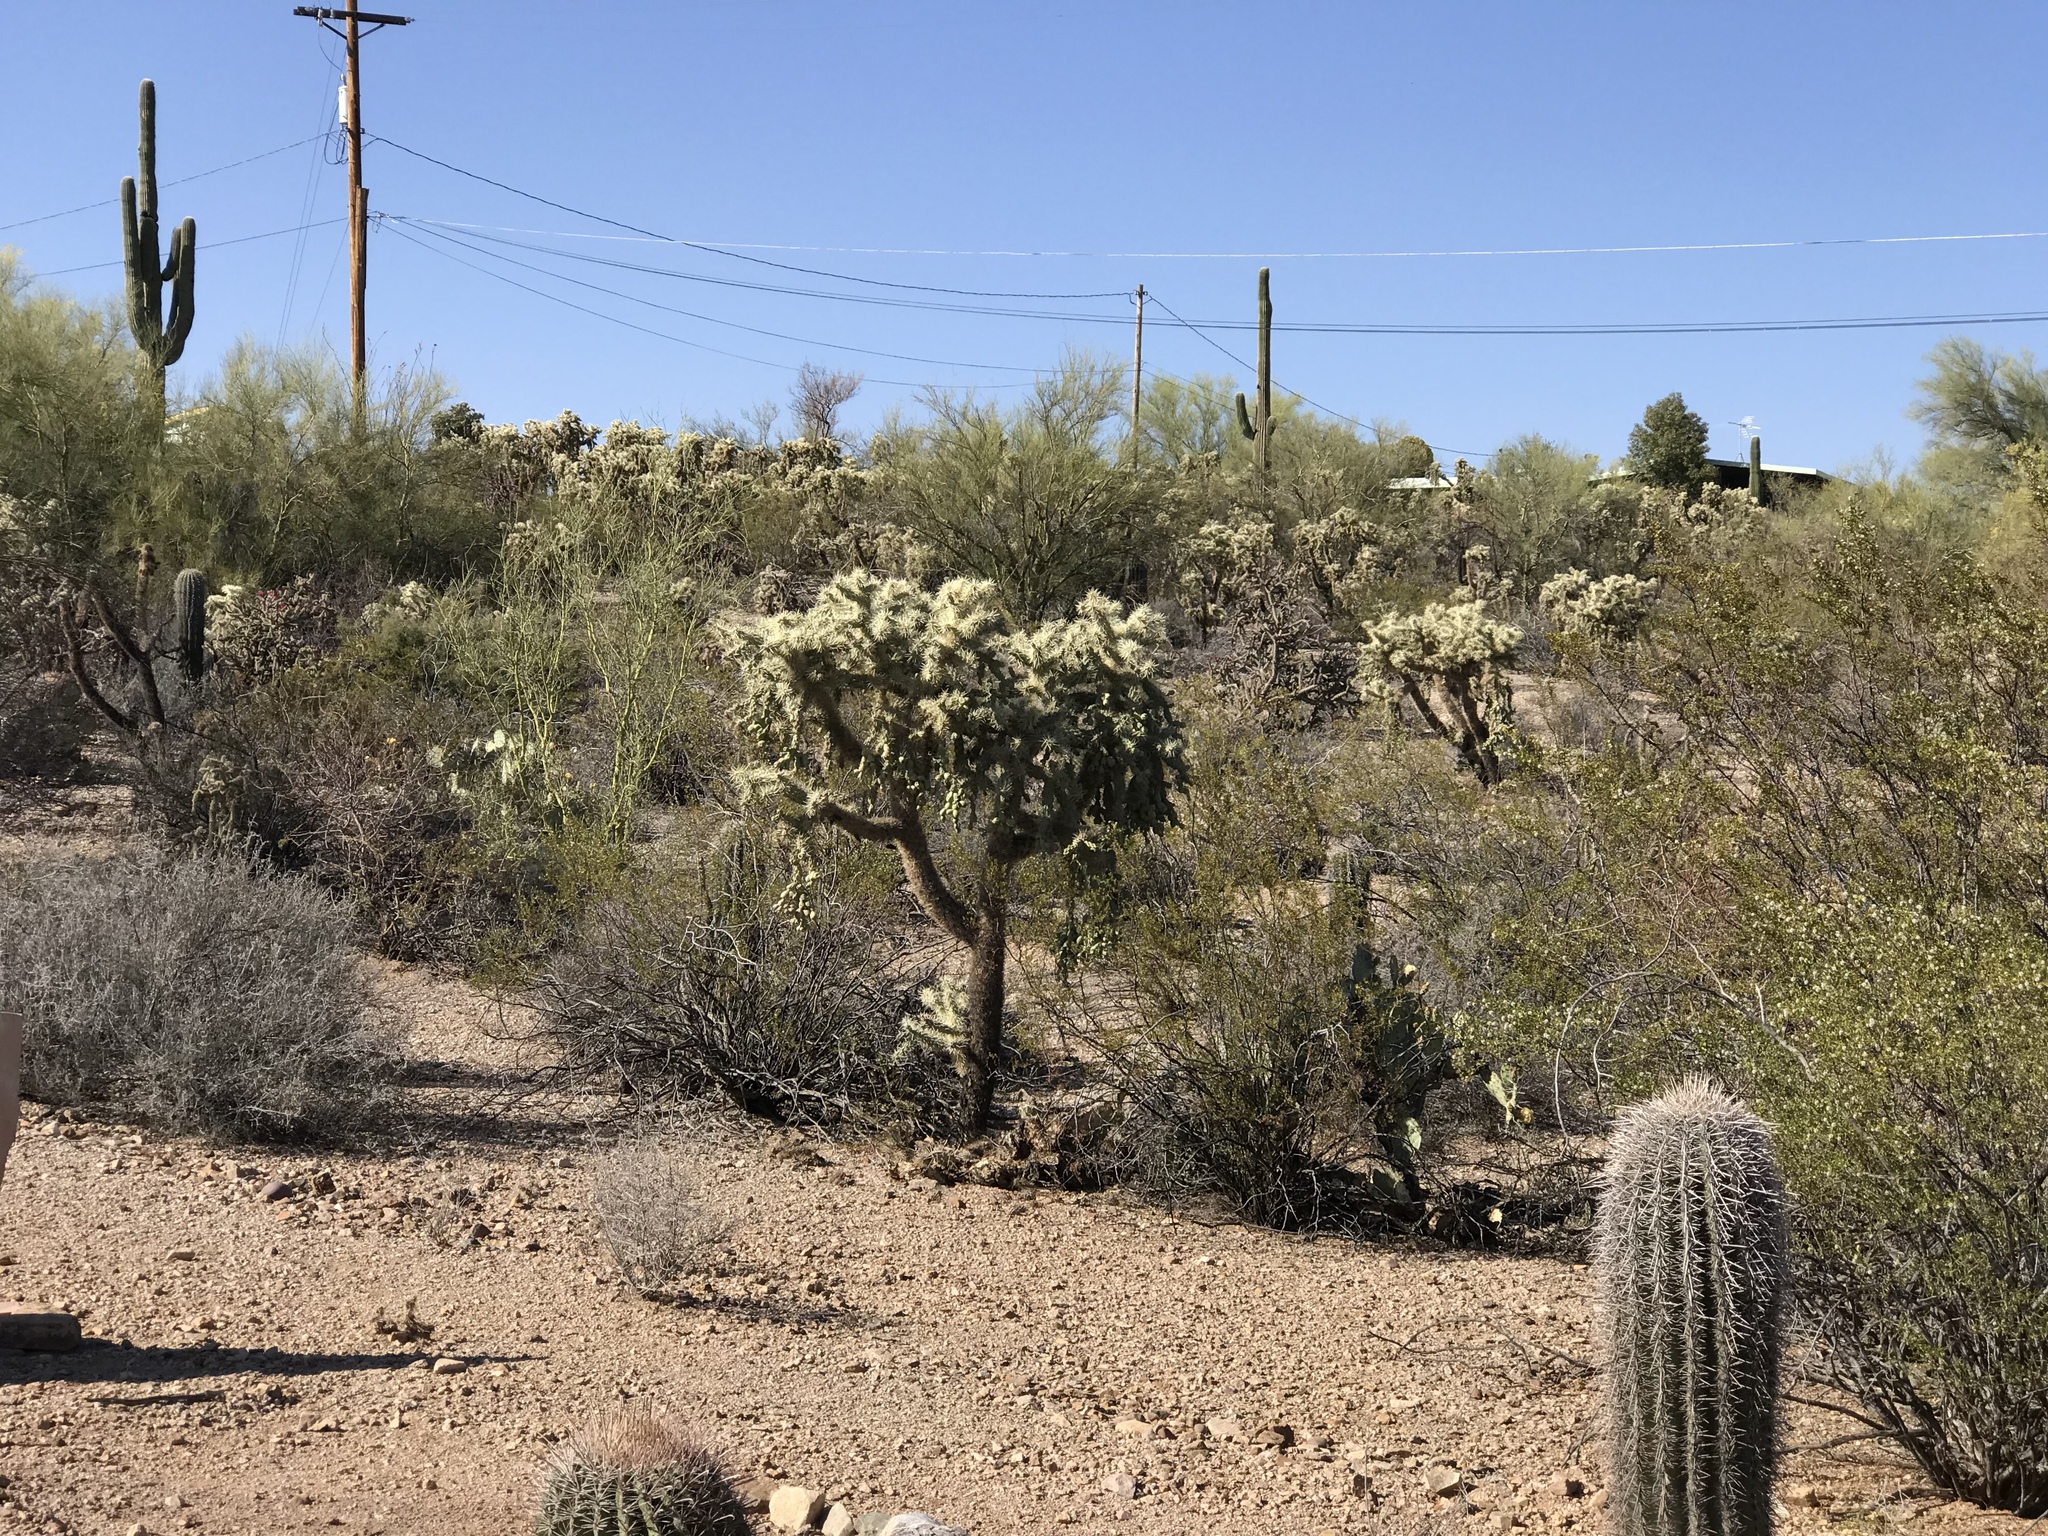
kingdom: Plantae
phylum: Tracheophyta
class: Magnoliopsida
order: Caryophyllales
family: Cactaceae
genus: Cylindropuntia
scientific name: Cylindropuntia fulgida
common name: Jumping cholla
